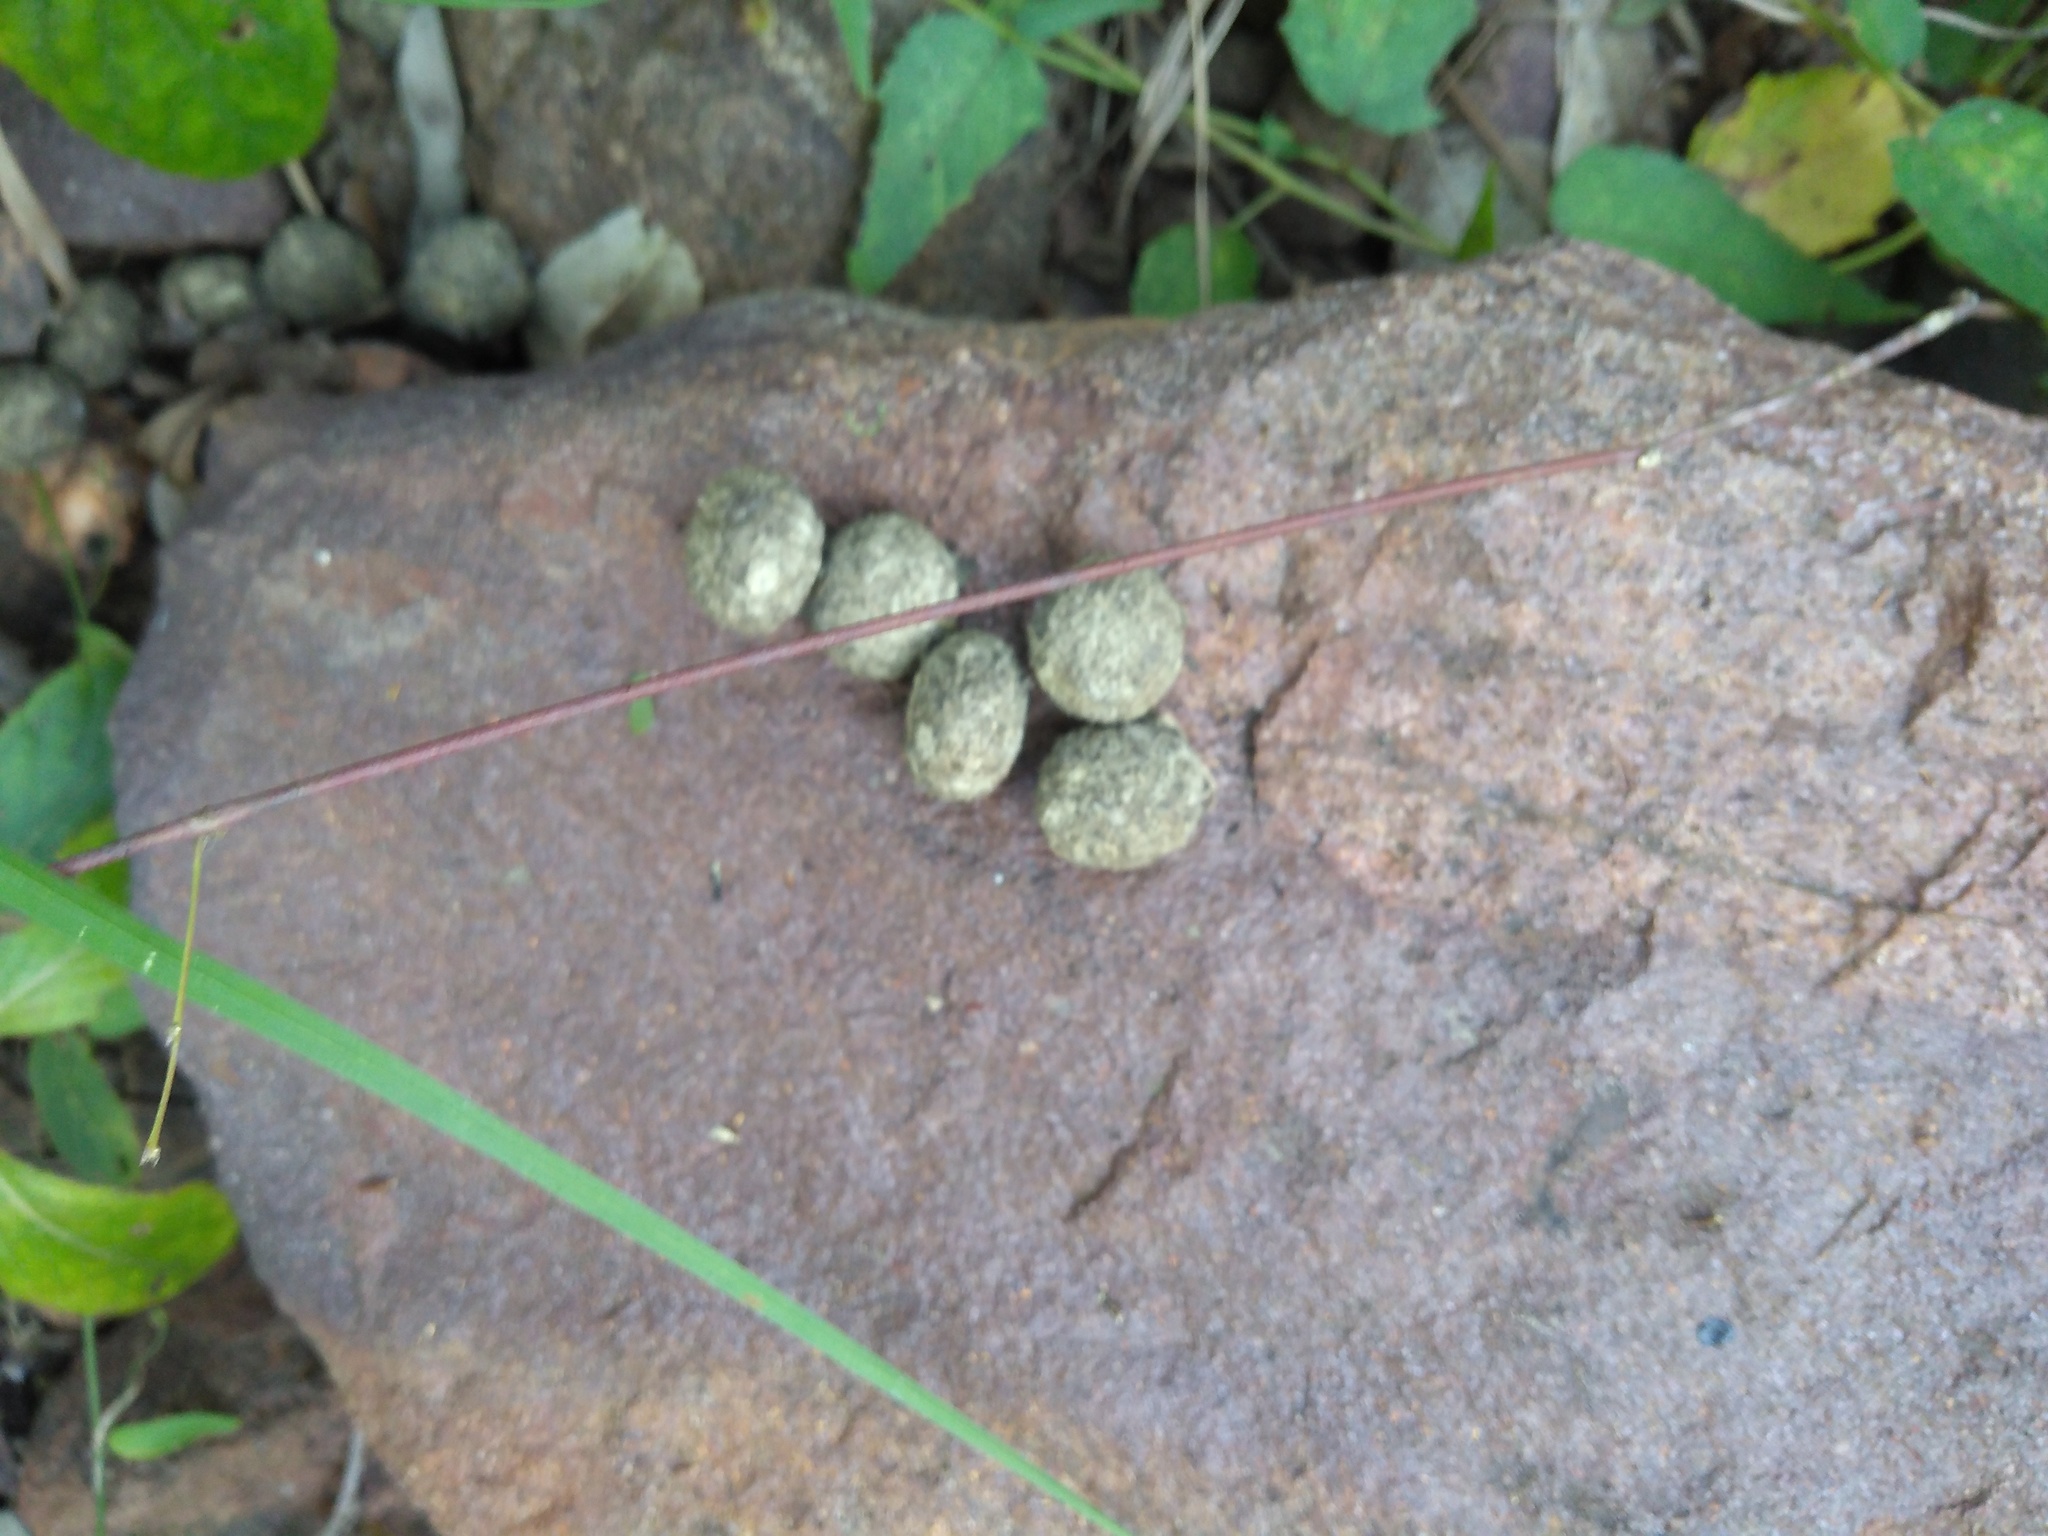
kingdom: Animalia
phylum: Chordata
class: Mammalia
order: Lagomorpha
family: Leporidae
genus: Lepus
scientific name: Lepus nigricollis
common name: Indian hare
